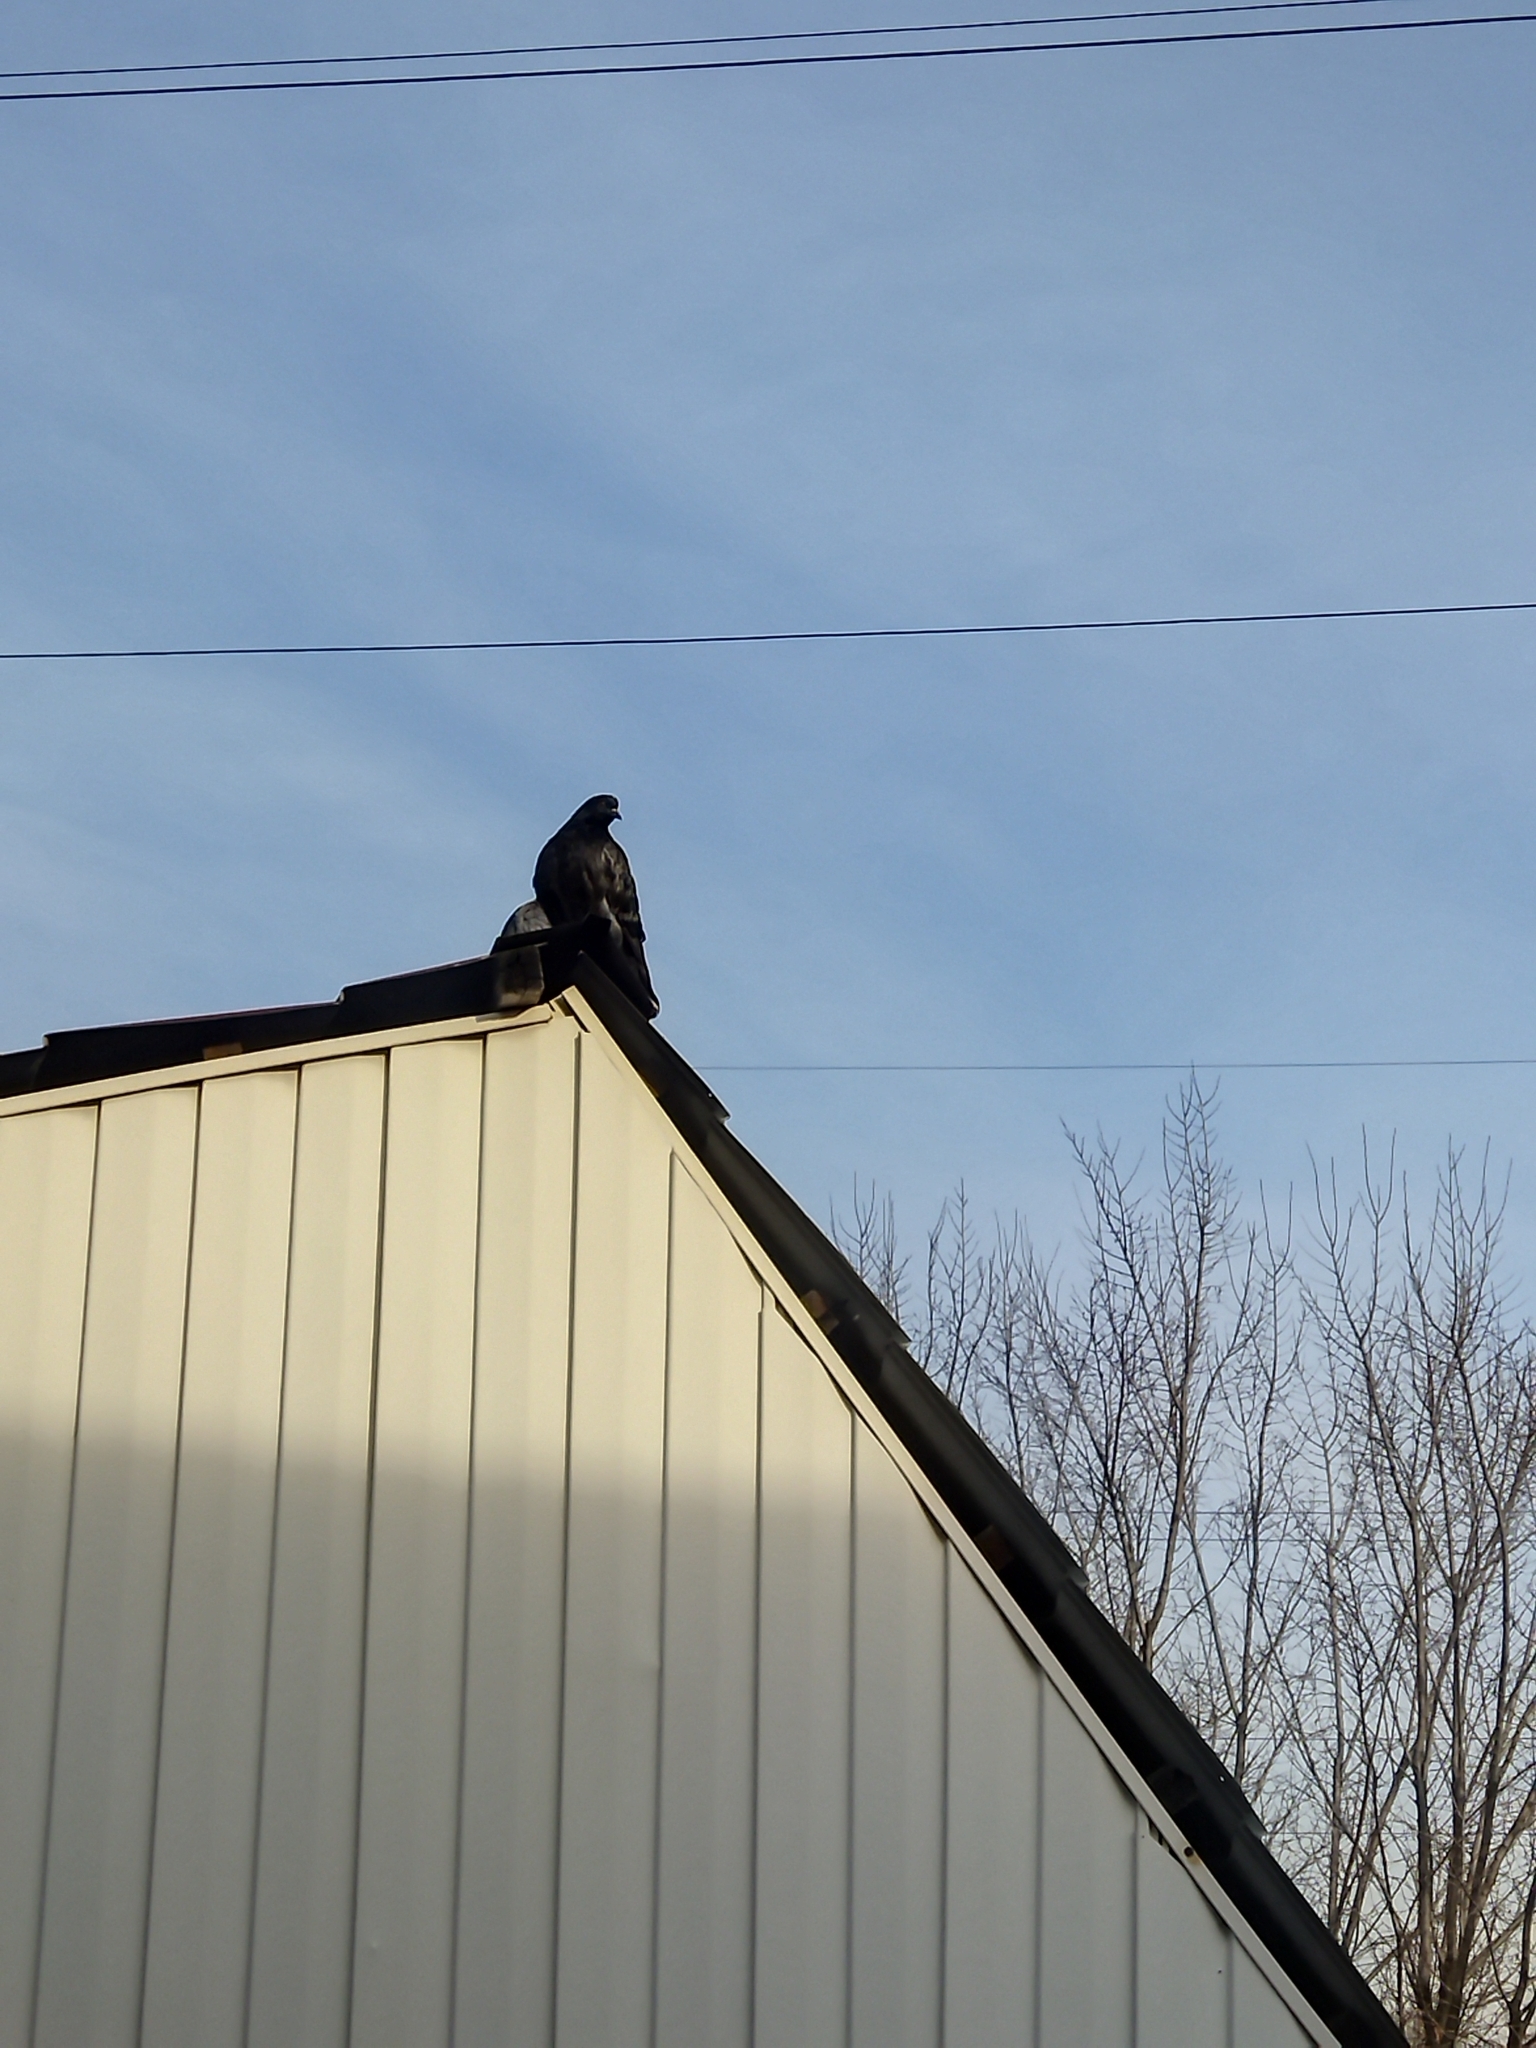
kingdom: Animalia
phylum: Chordata
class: Aves
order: Columbiformes
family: Columbidae
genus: Columba
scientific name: Columba livia
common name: Rock pigeon
